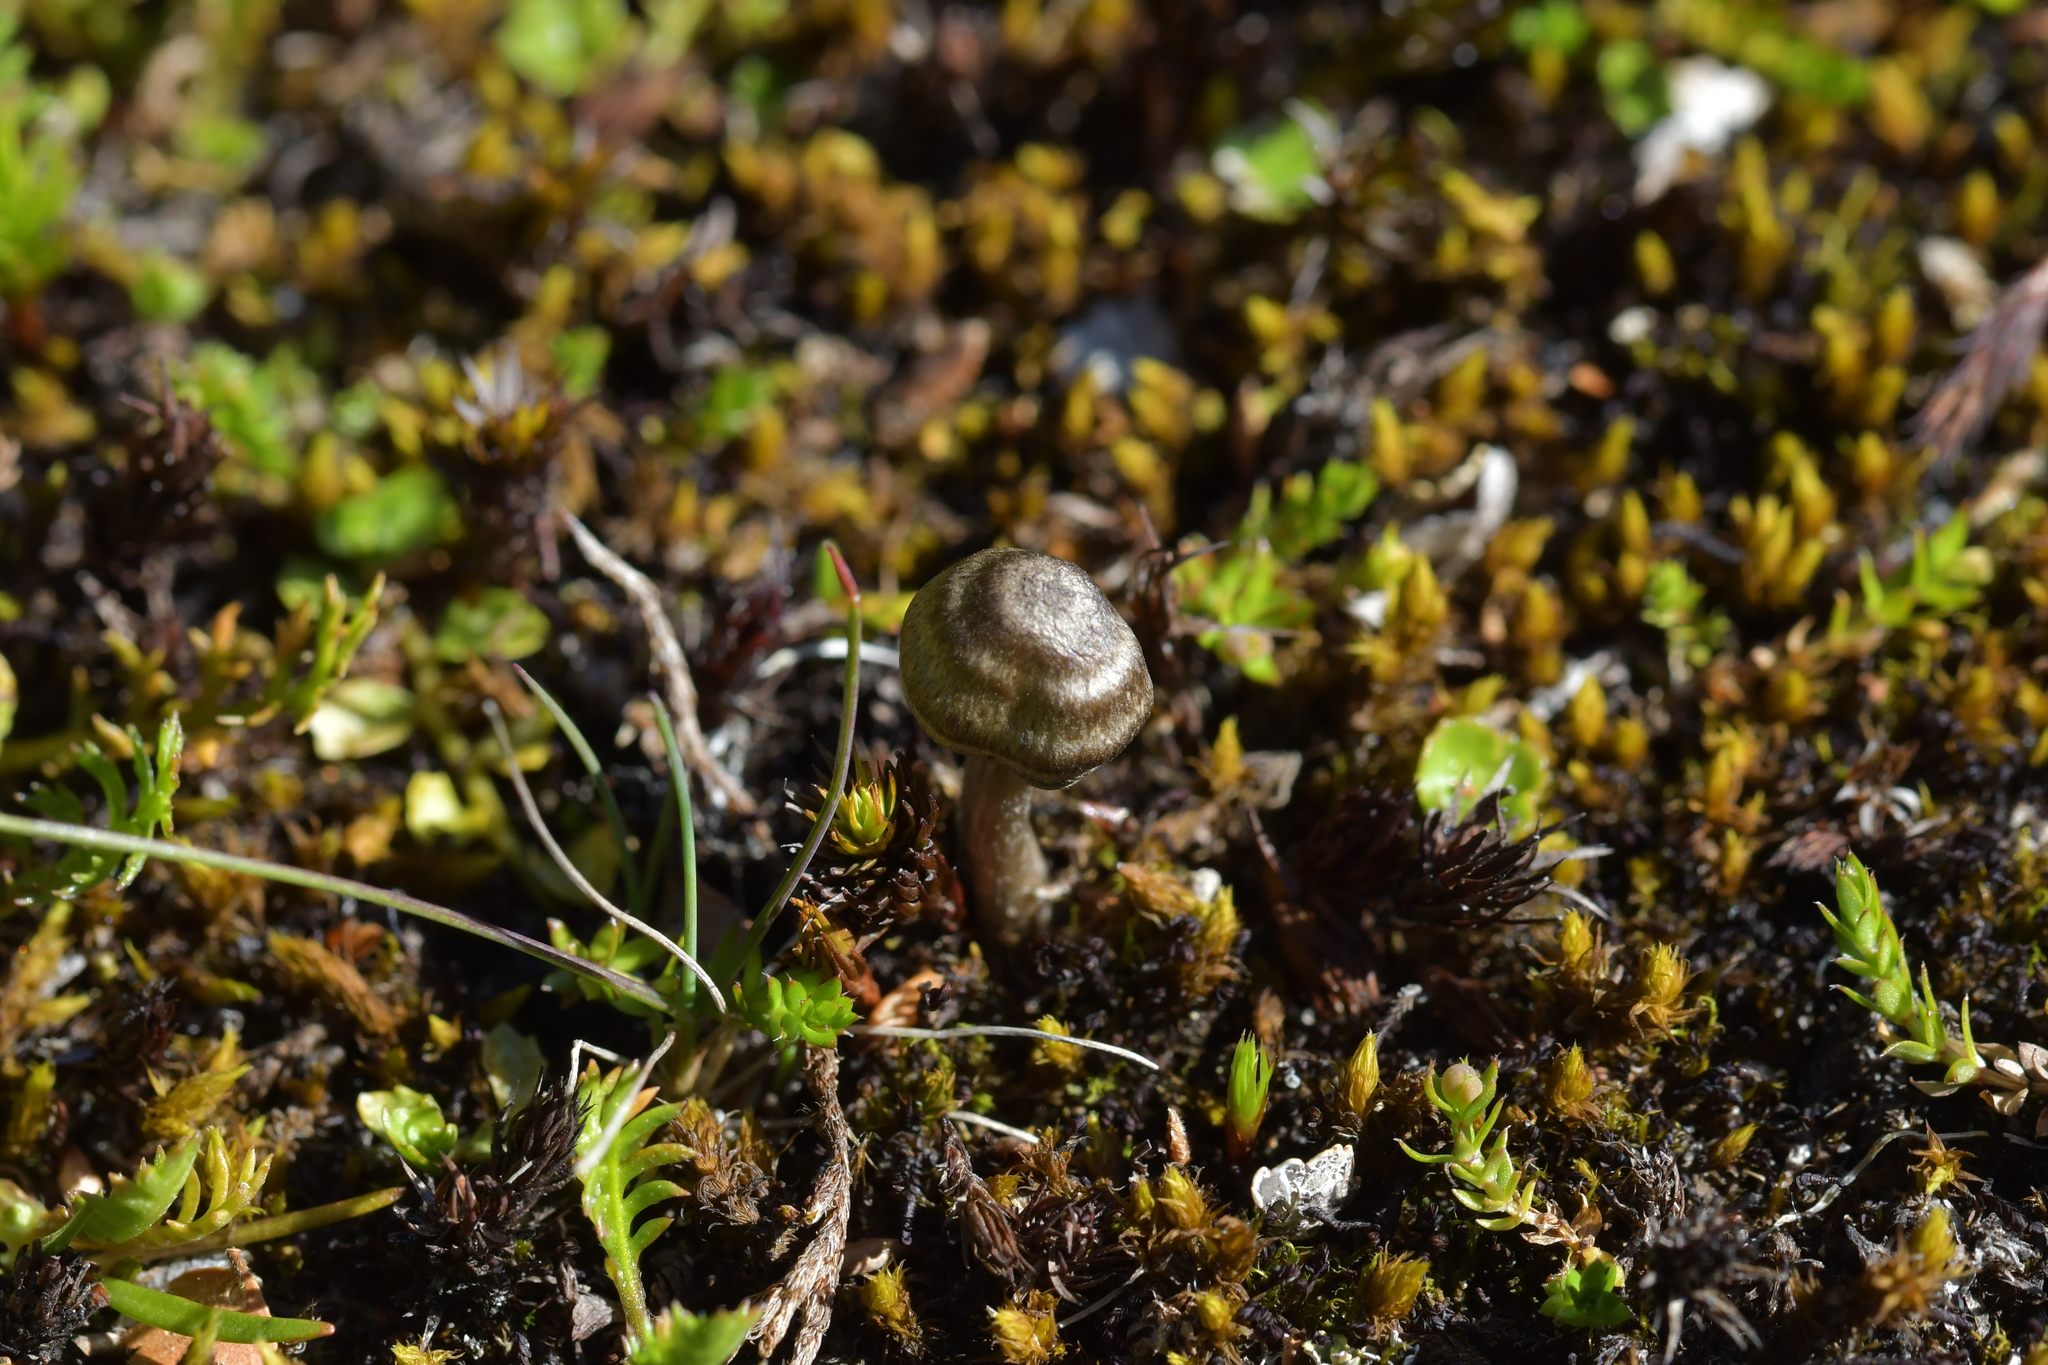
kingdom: Fungi
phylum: Basidiomycota
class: Agaricomycetes
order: Agaricales
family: Entolomataceae
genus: Entoloma
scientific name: Entoloma perzonatum
